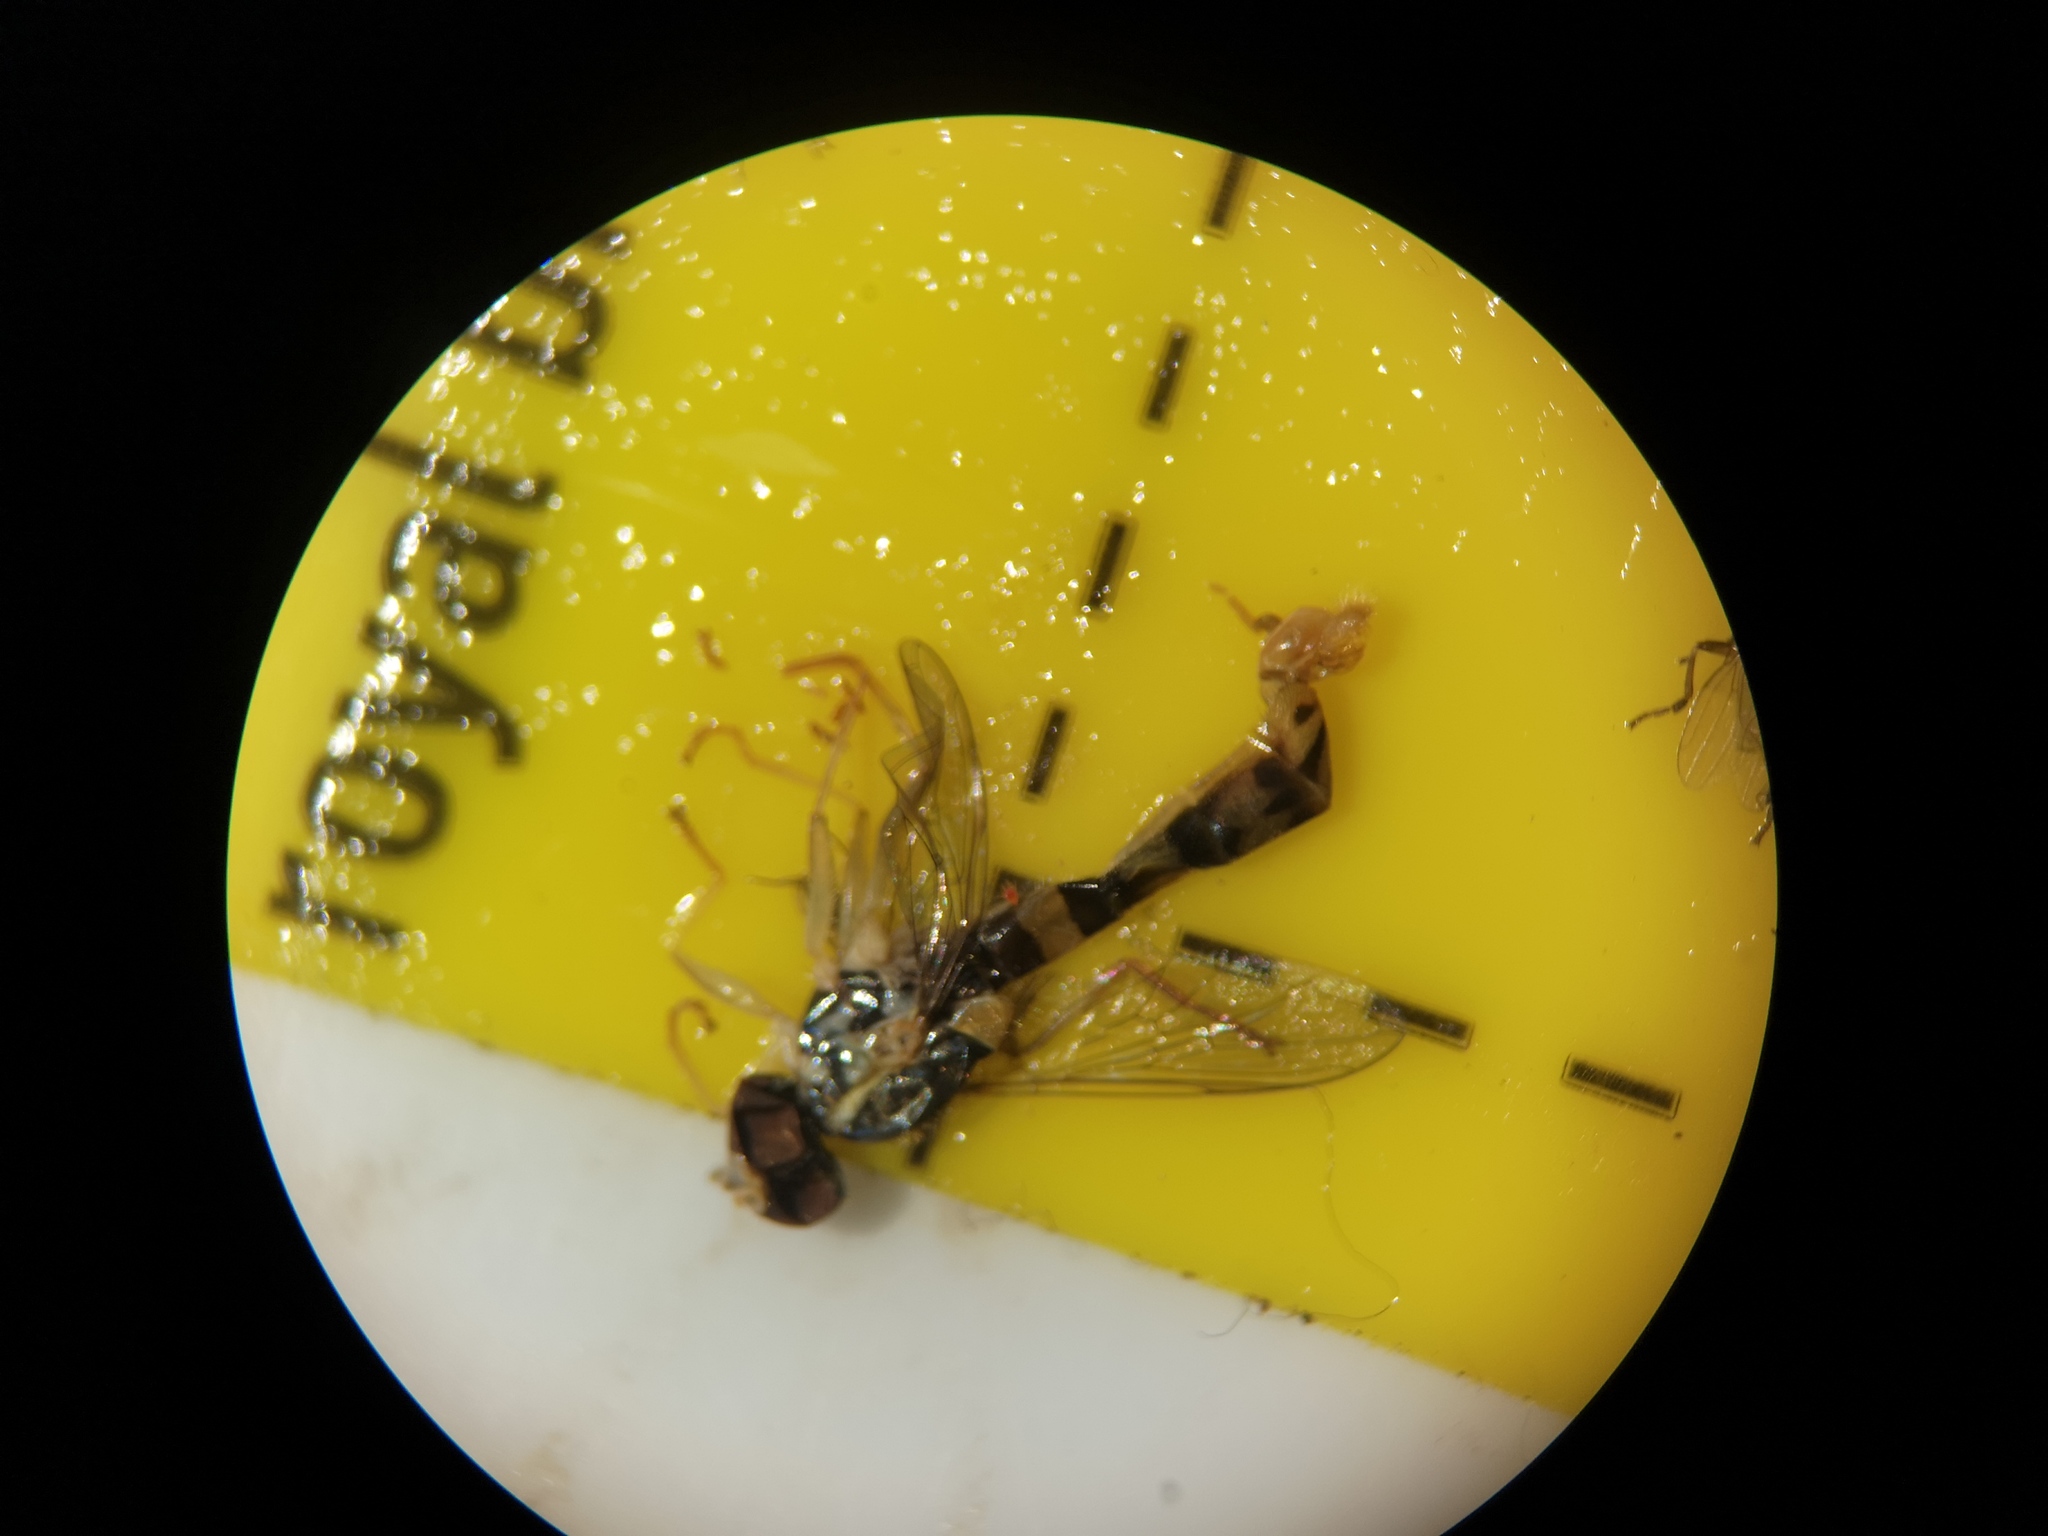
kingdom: Animalia
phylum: Arthropoda
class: Insecta
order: Diptera
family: Syrphidae
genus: Sphaerophoria
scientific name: Sphaerophoria scripta
